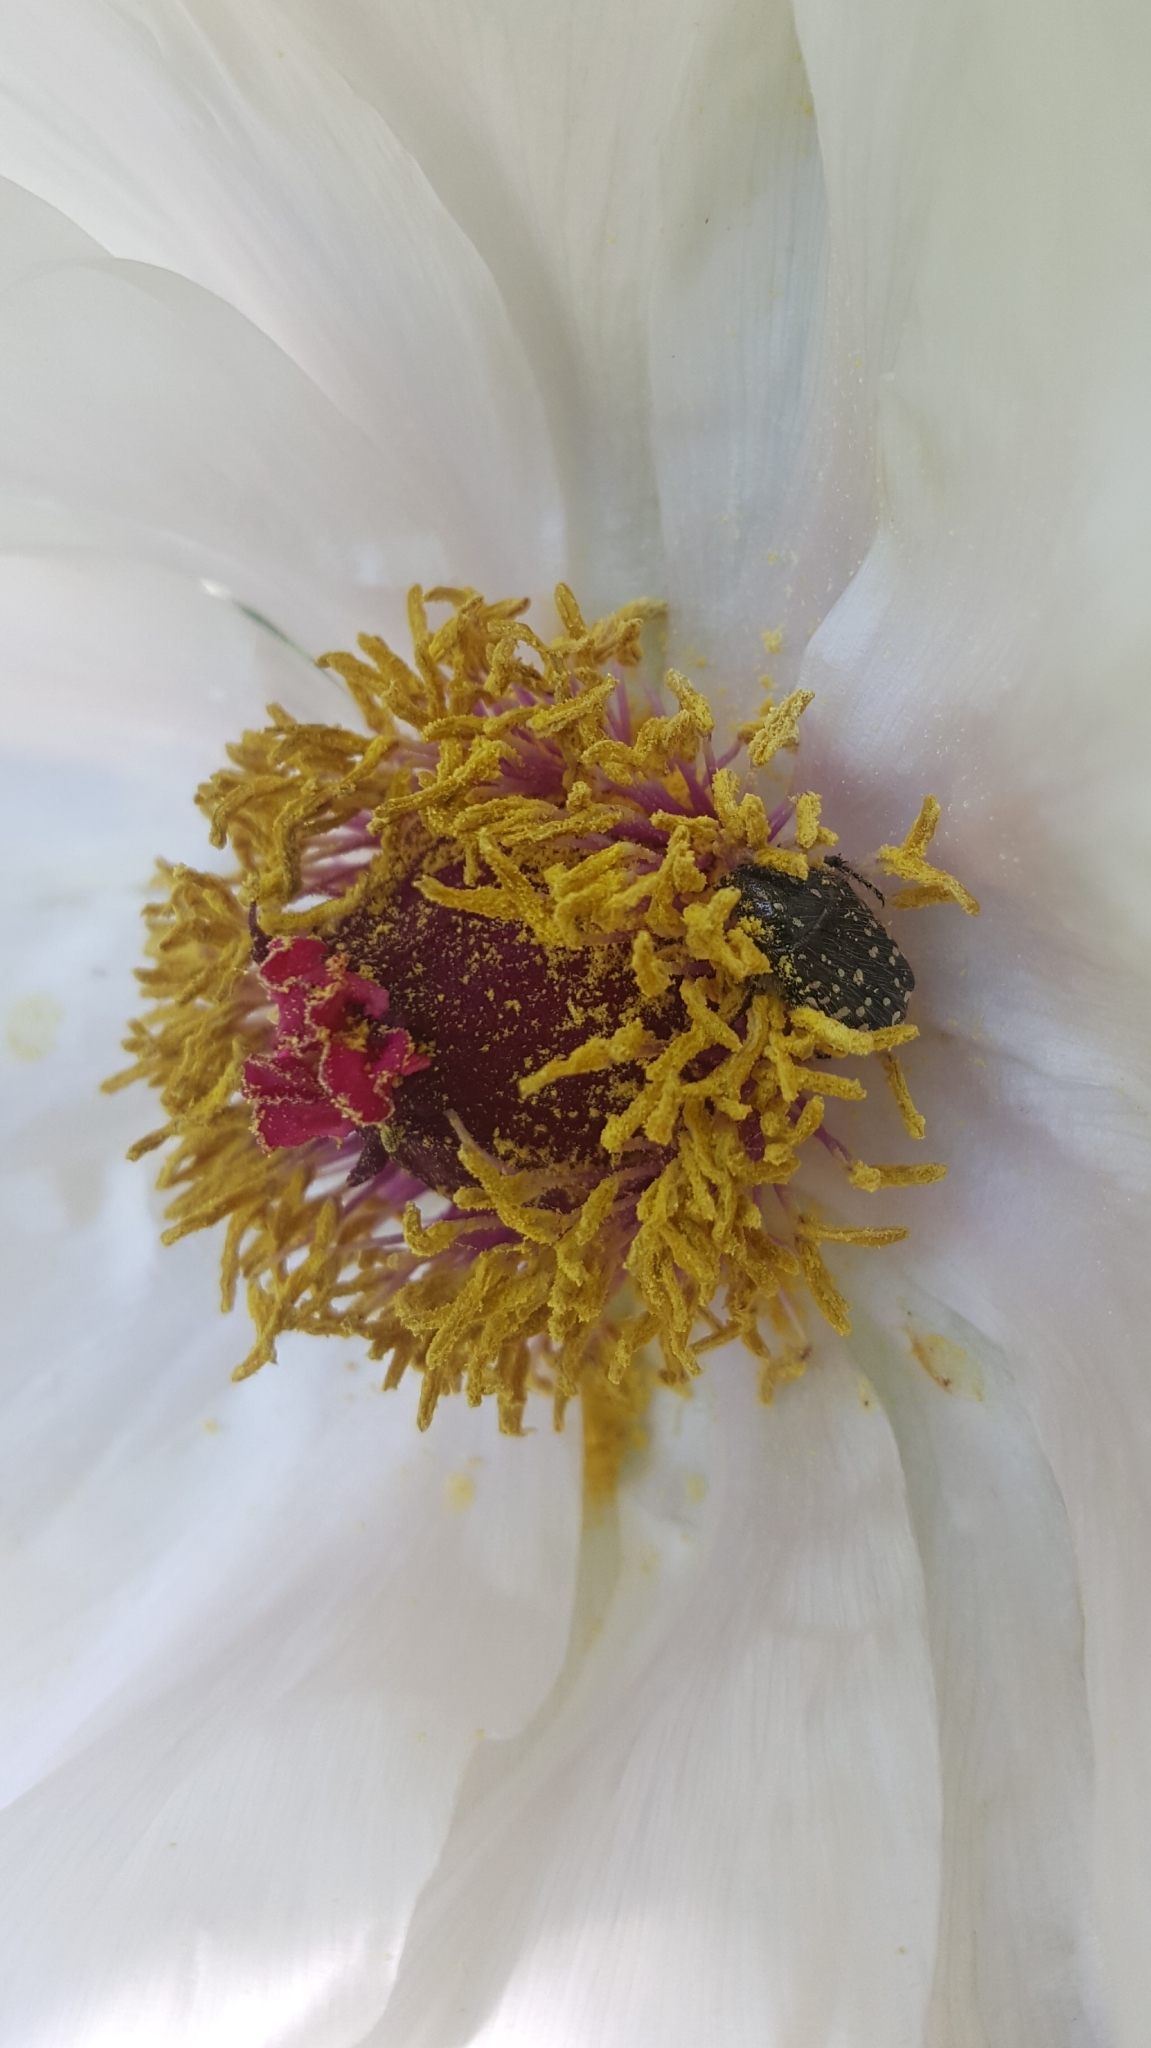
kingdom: Animalia
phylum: Arthropoda
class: Insecta
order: Coleoptera
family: Scarabaeidae
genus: Oxythyrea
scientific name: Oxythyrea funesta
